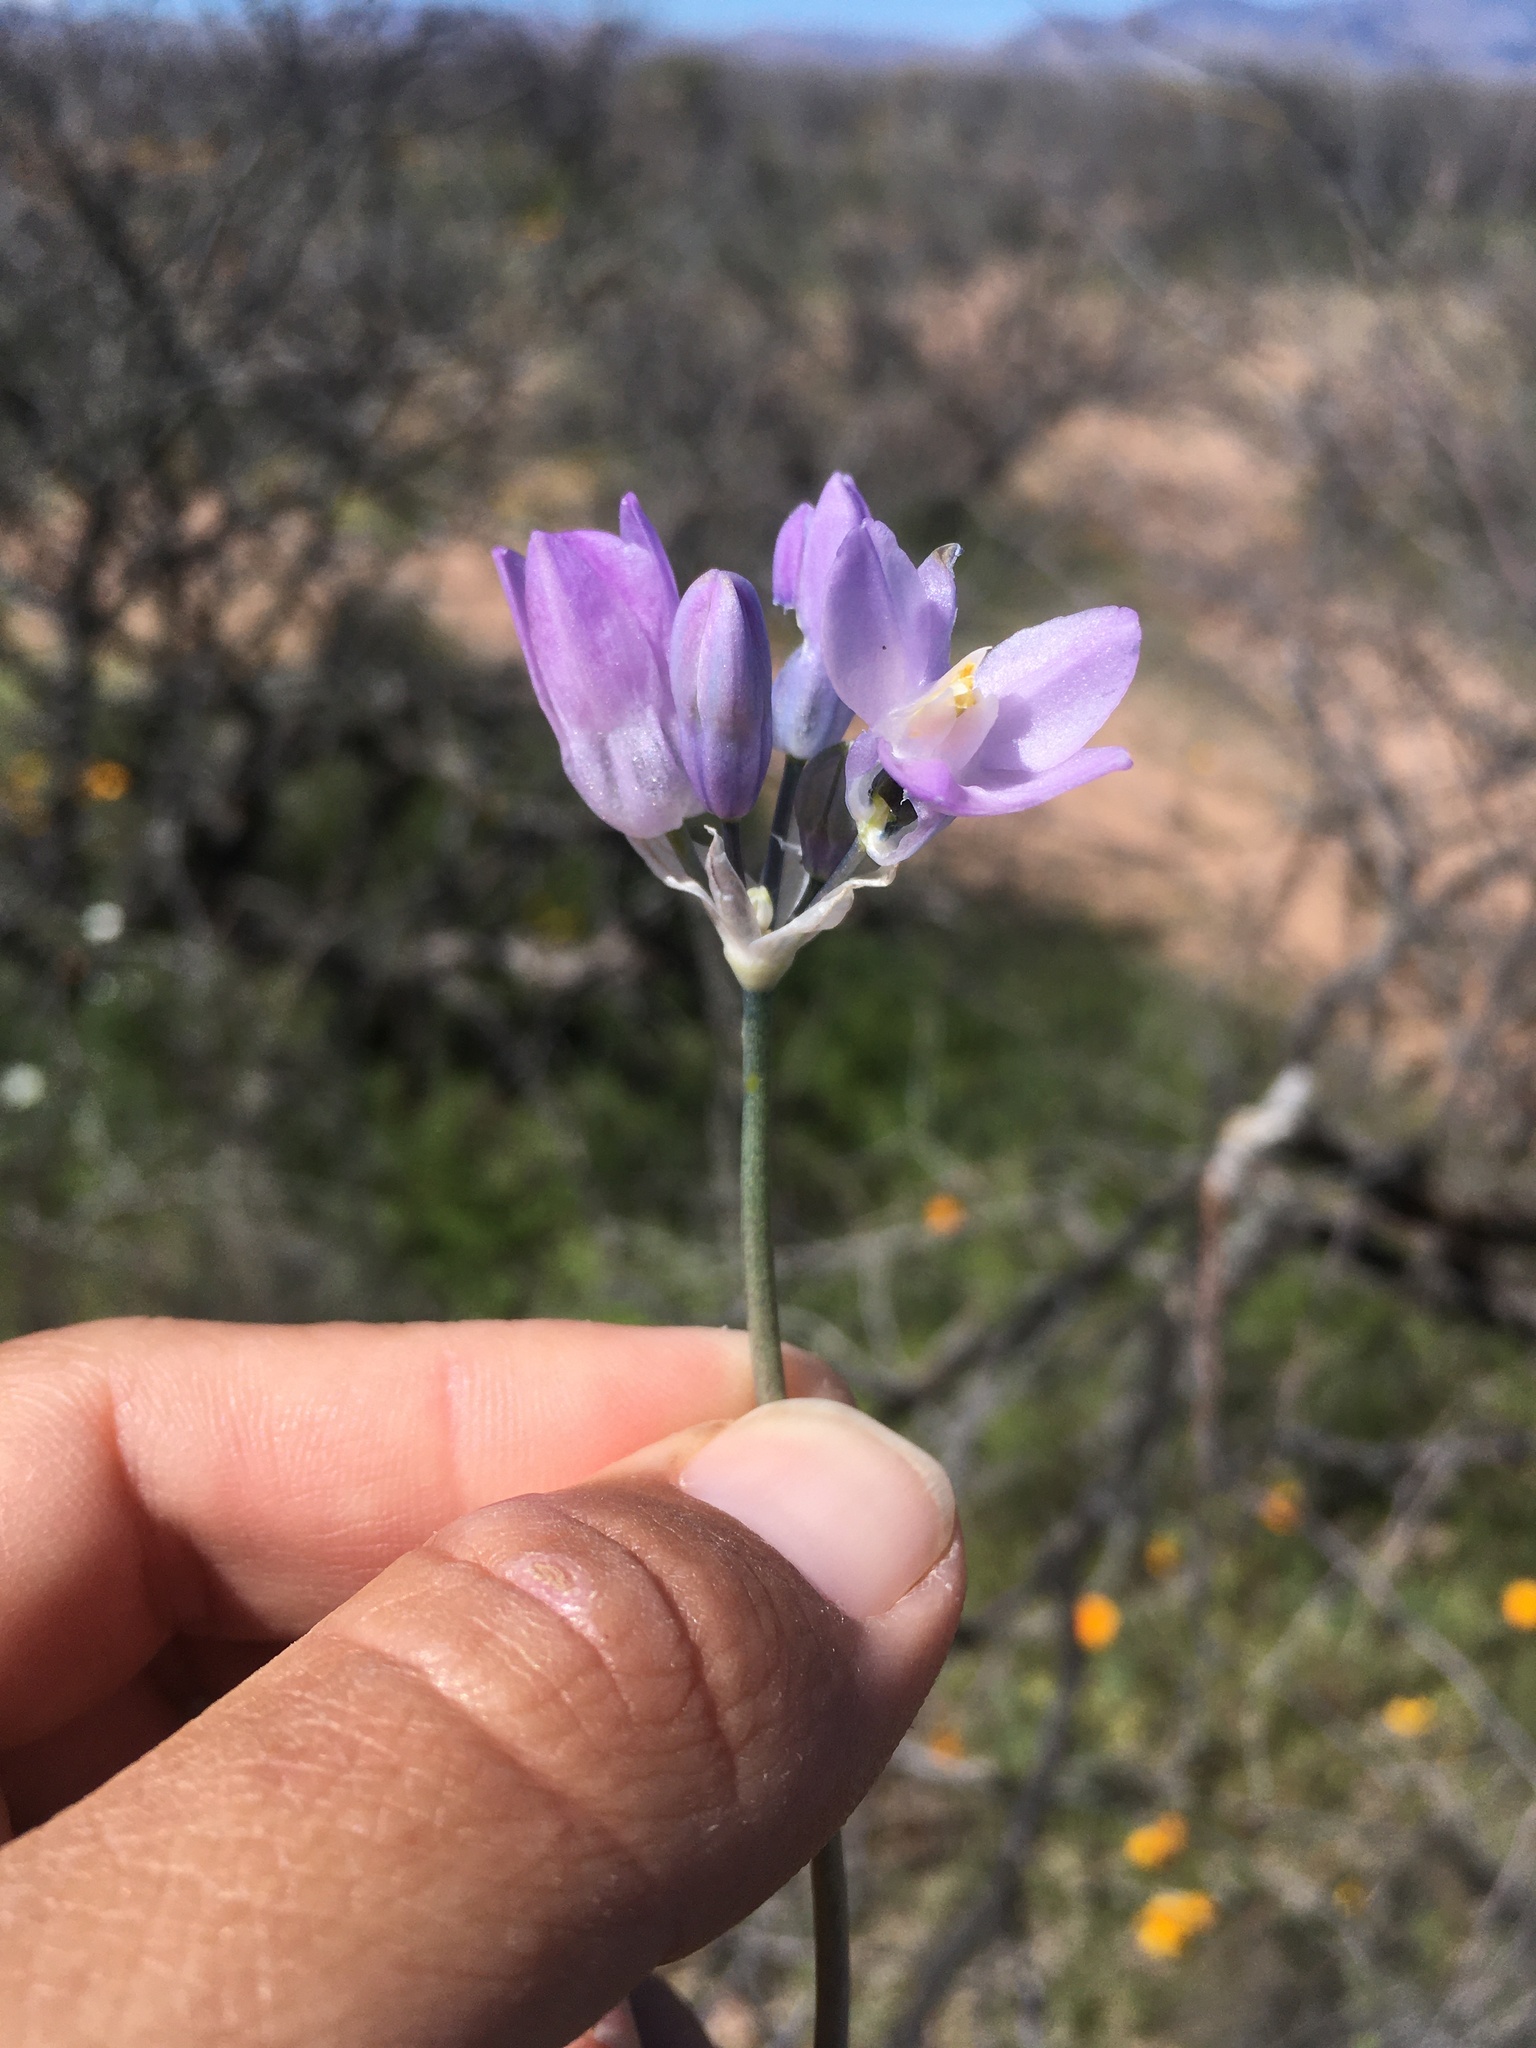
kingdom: Plantae
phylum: Tracheophyta
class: Liliopsida
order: Asparagales
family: Asparagaceae
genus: Dipterostemon
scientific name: Dipterostemon capitatus
